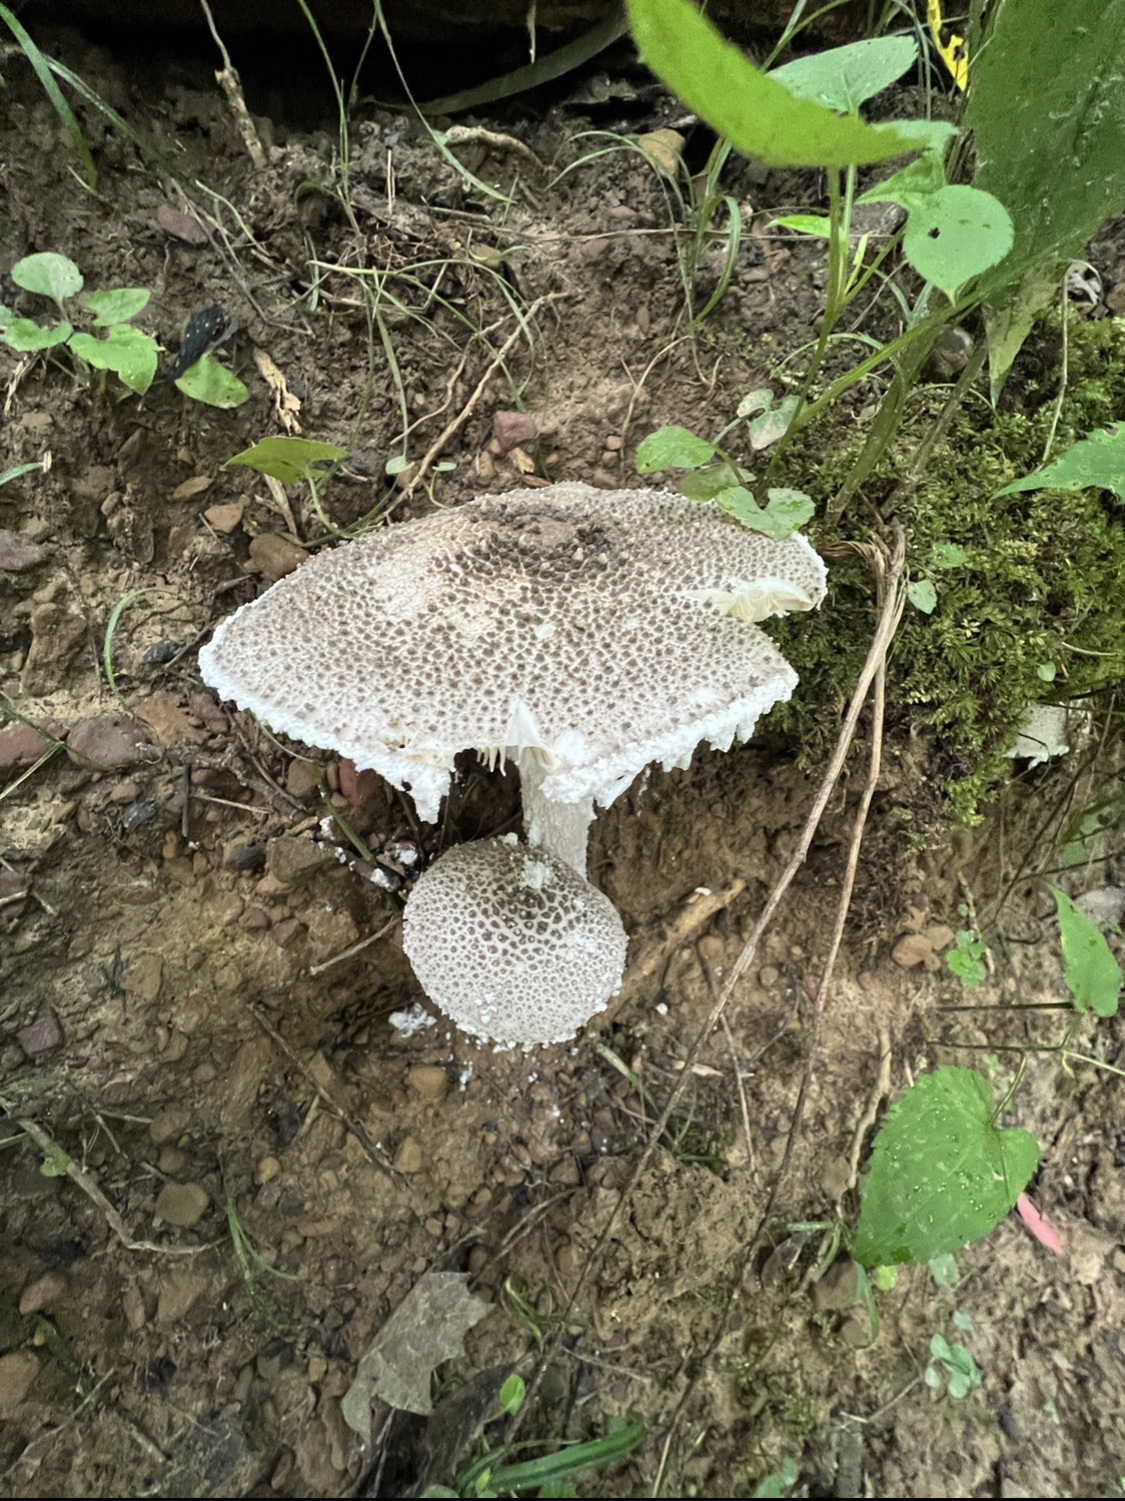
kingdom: Fungi
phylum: Basidiomycota
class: Agaricomycetes
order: Agaricales
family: Amanitaceae
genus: Amanita
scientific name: Amanita onusta
